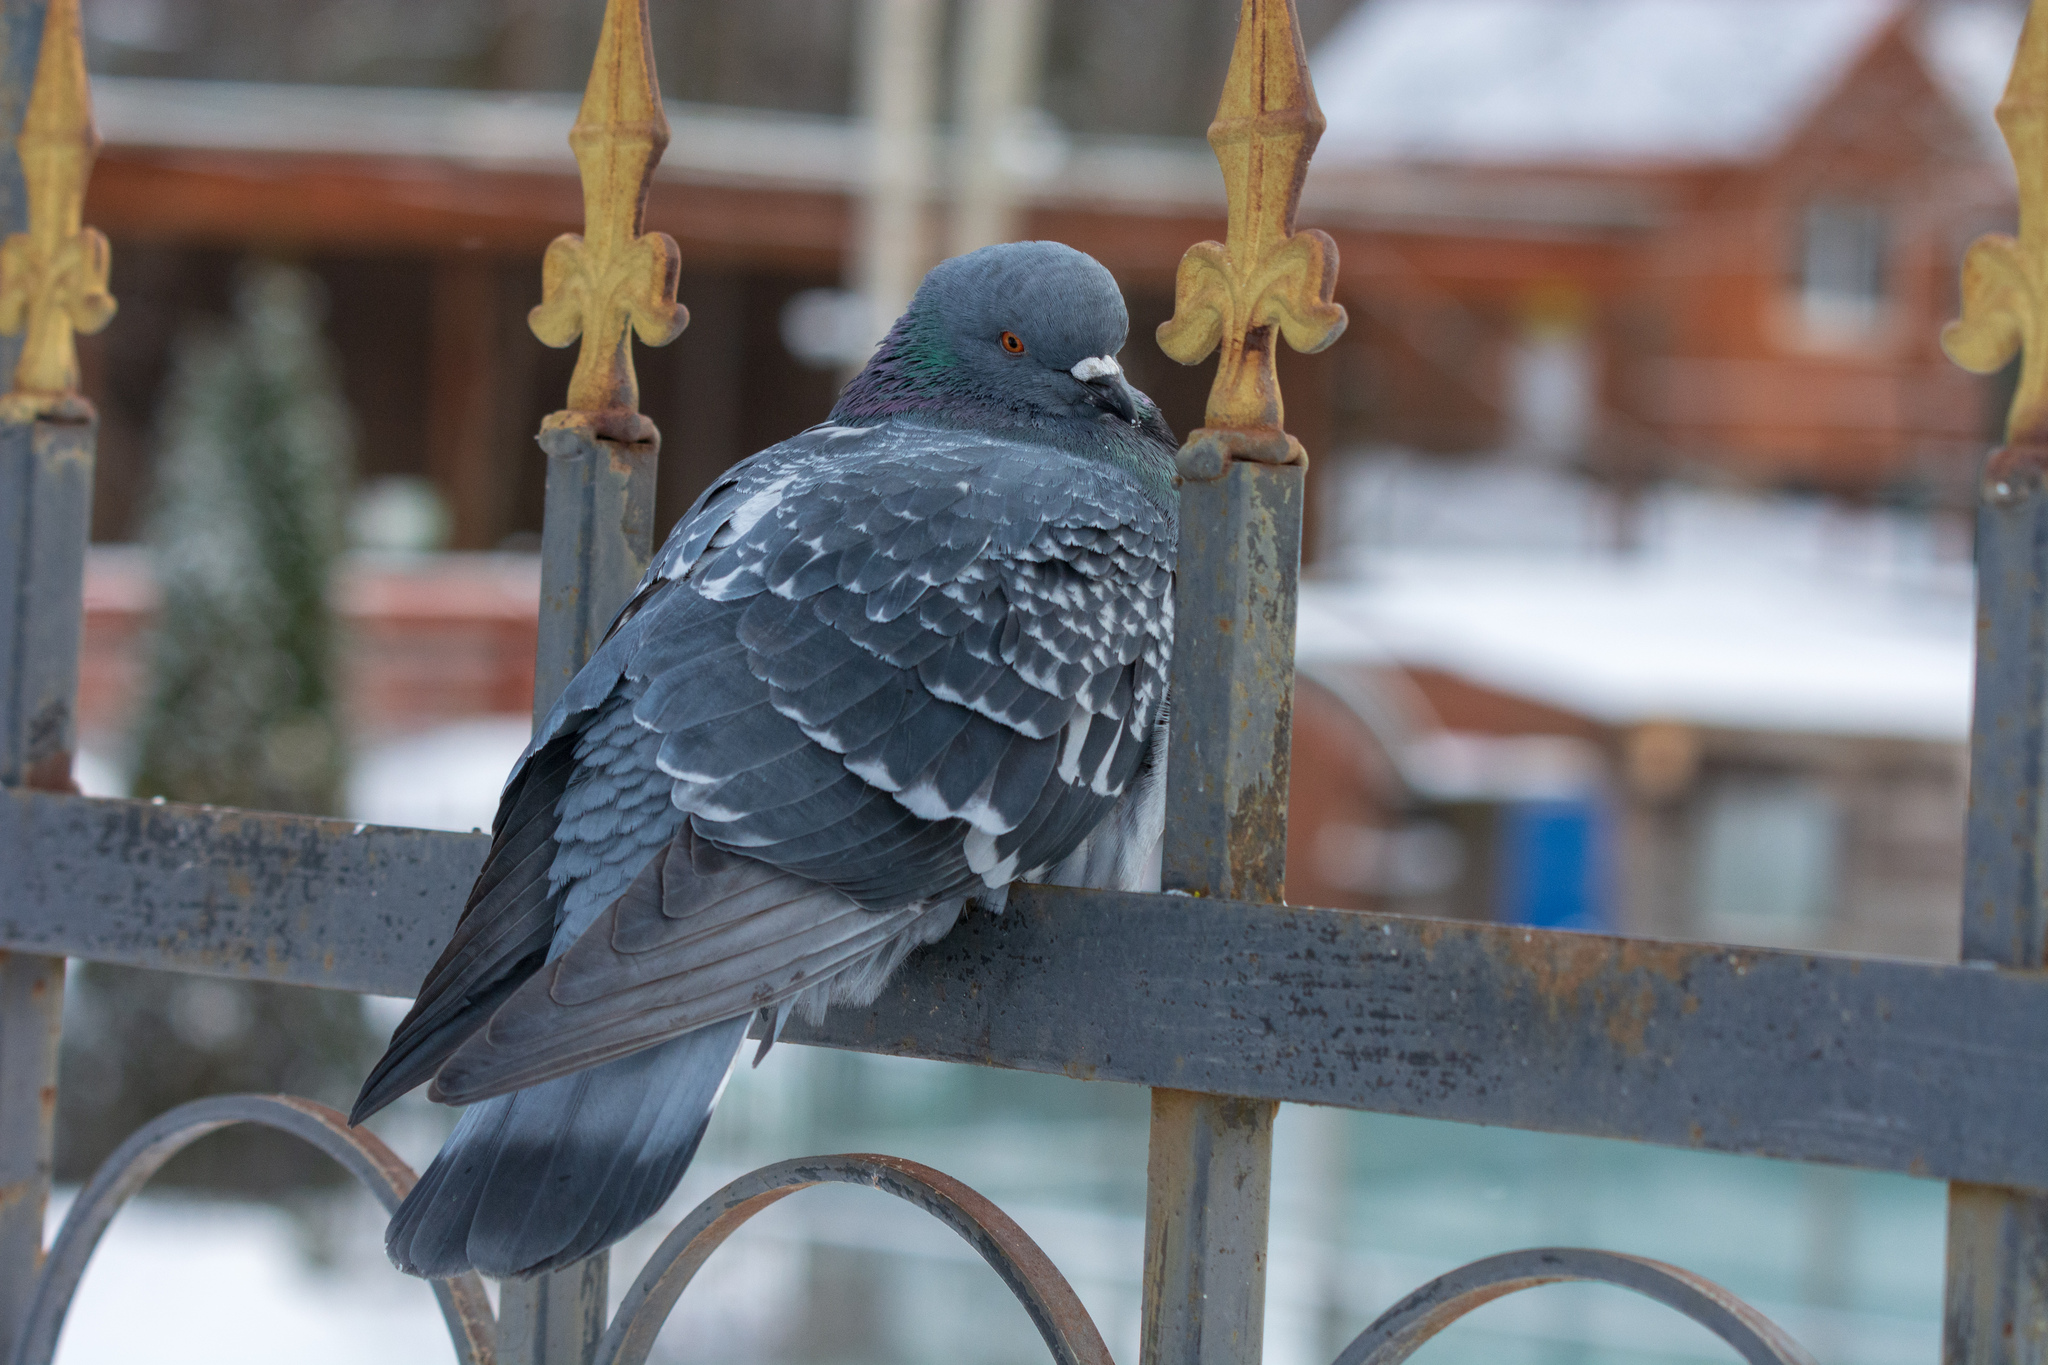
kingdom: Animalia
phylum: Chordata
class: Aves
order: Columbiformes
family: Columbidae
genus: Columba
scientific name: Columba livia
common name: Rock pigeon
